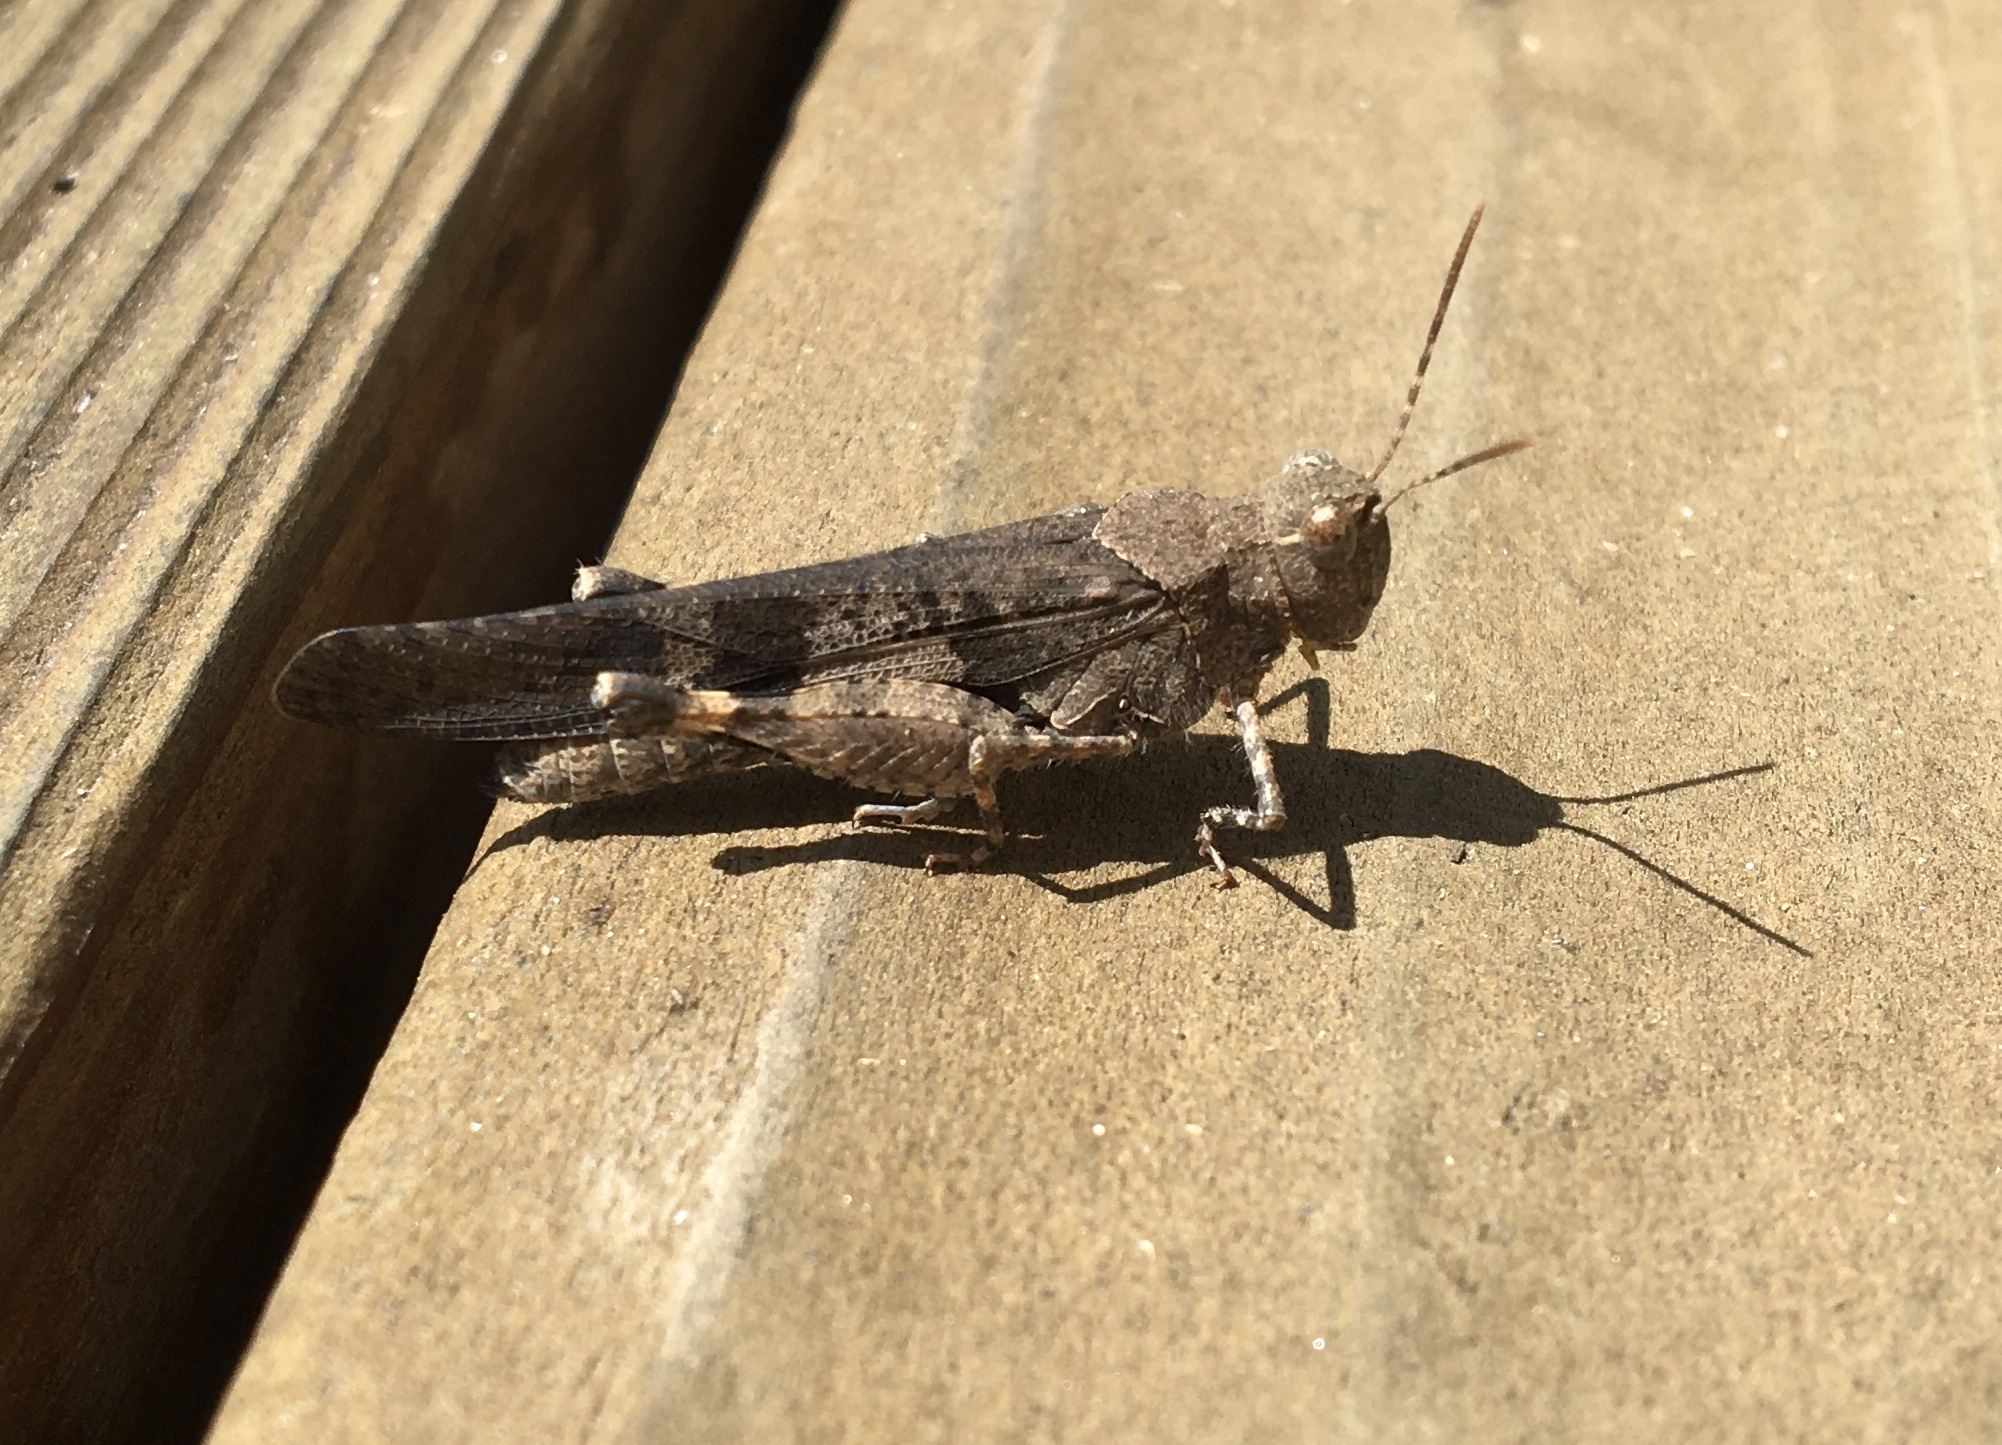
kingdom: Animalia
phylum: Arthropoda
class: Insecta
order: Orthoptera
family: Acrididae
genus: Trimerotropis
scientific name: Trimerotropis pallidipennis
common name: Pallid-winged grasshopper
